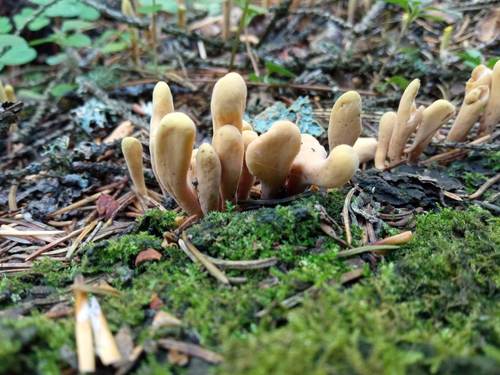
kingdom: Fungi
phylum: Basidiomycota
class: Agaricomycetes
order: Gomphales
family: Clavariadelphaceae
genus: Clavariadelphus
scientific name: Clavariadelphus ligula
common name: Ochre club
